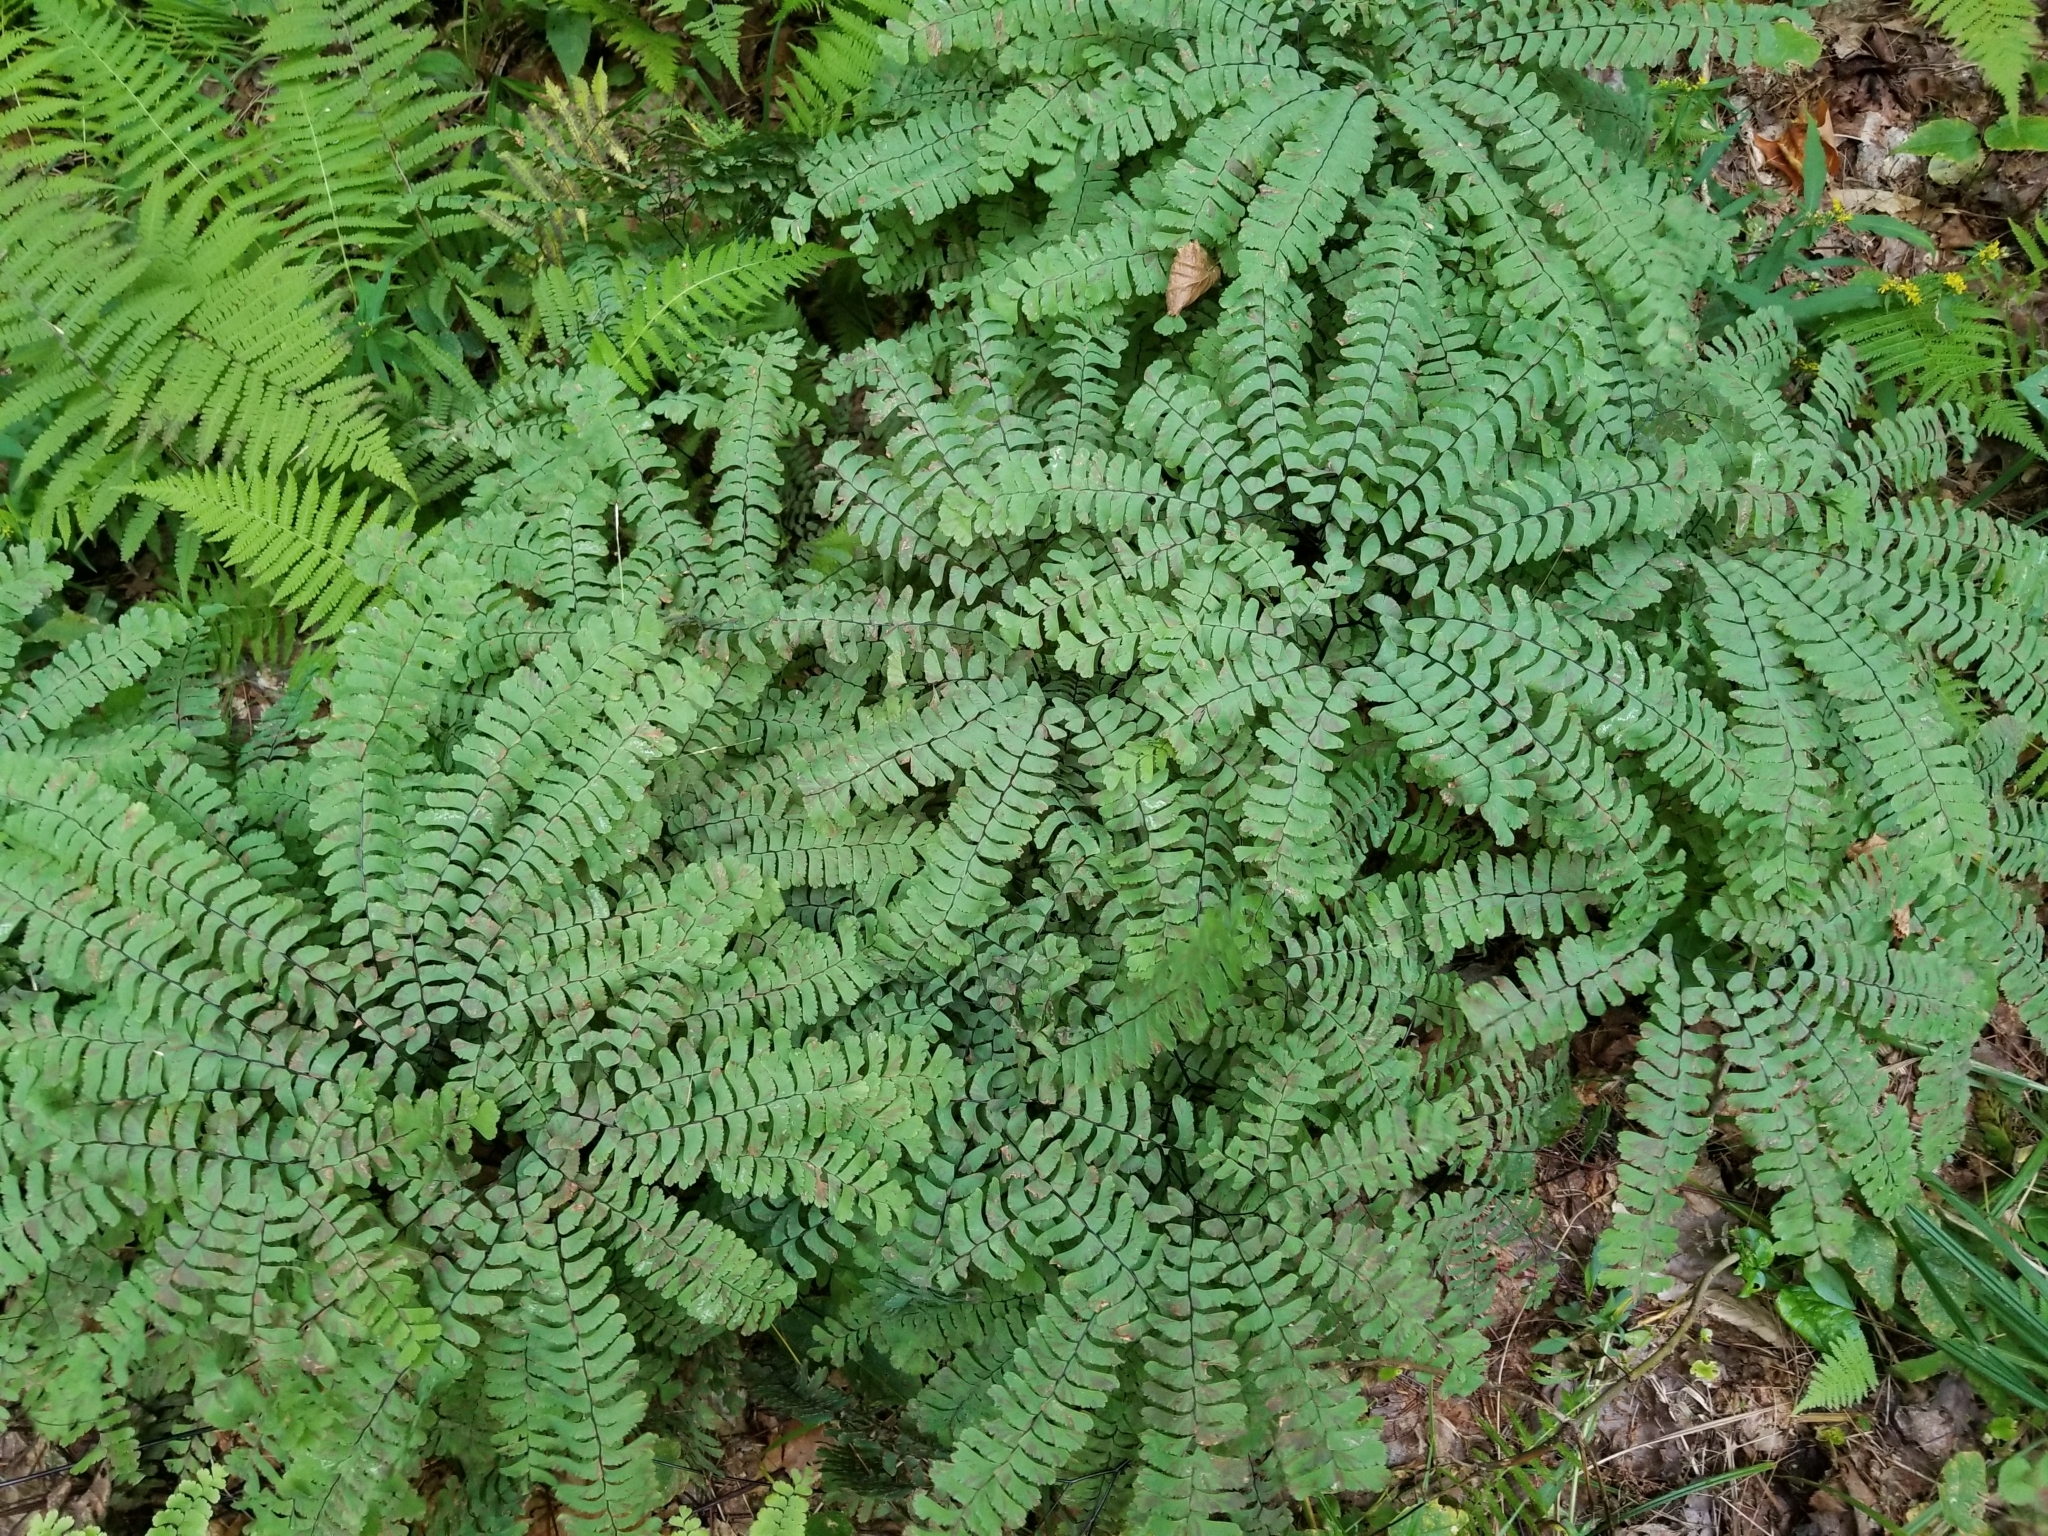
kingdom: Plantae
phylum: Tracheophyta
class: Polypodiopsida
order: Polypodiales
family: Pteridaceae
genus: Adiantum
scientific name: Adiantum pedatum
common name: Five-finger fern
